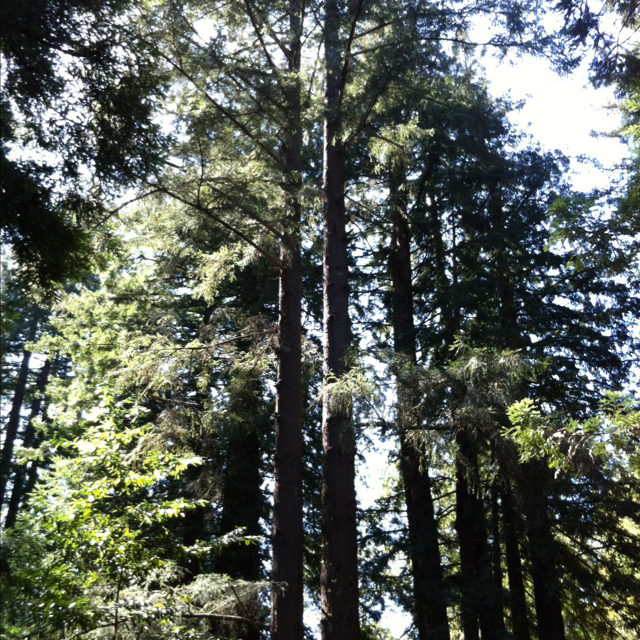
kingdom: Plantae
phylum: Tracheophyta
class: Pinopsida
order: Pinales
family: Cupressaceae
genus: Sequoia
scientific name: Sequoia sempervirens
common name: Coast redwood
